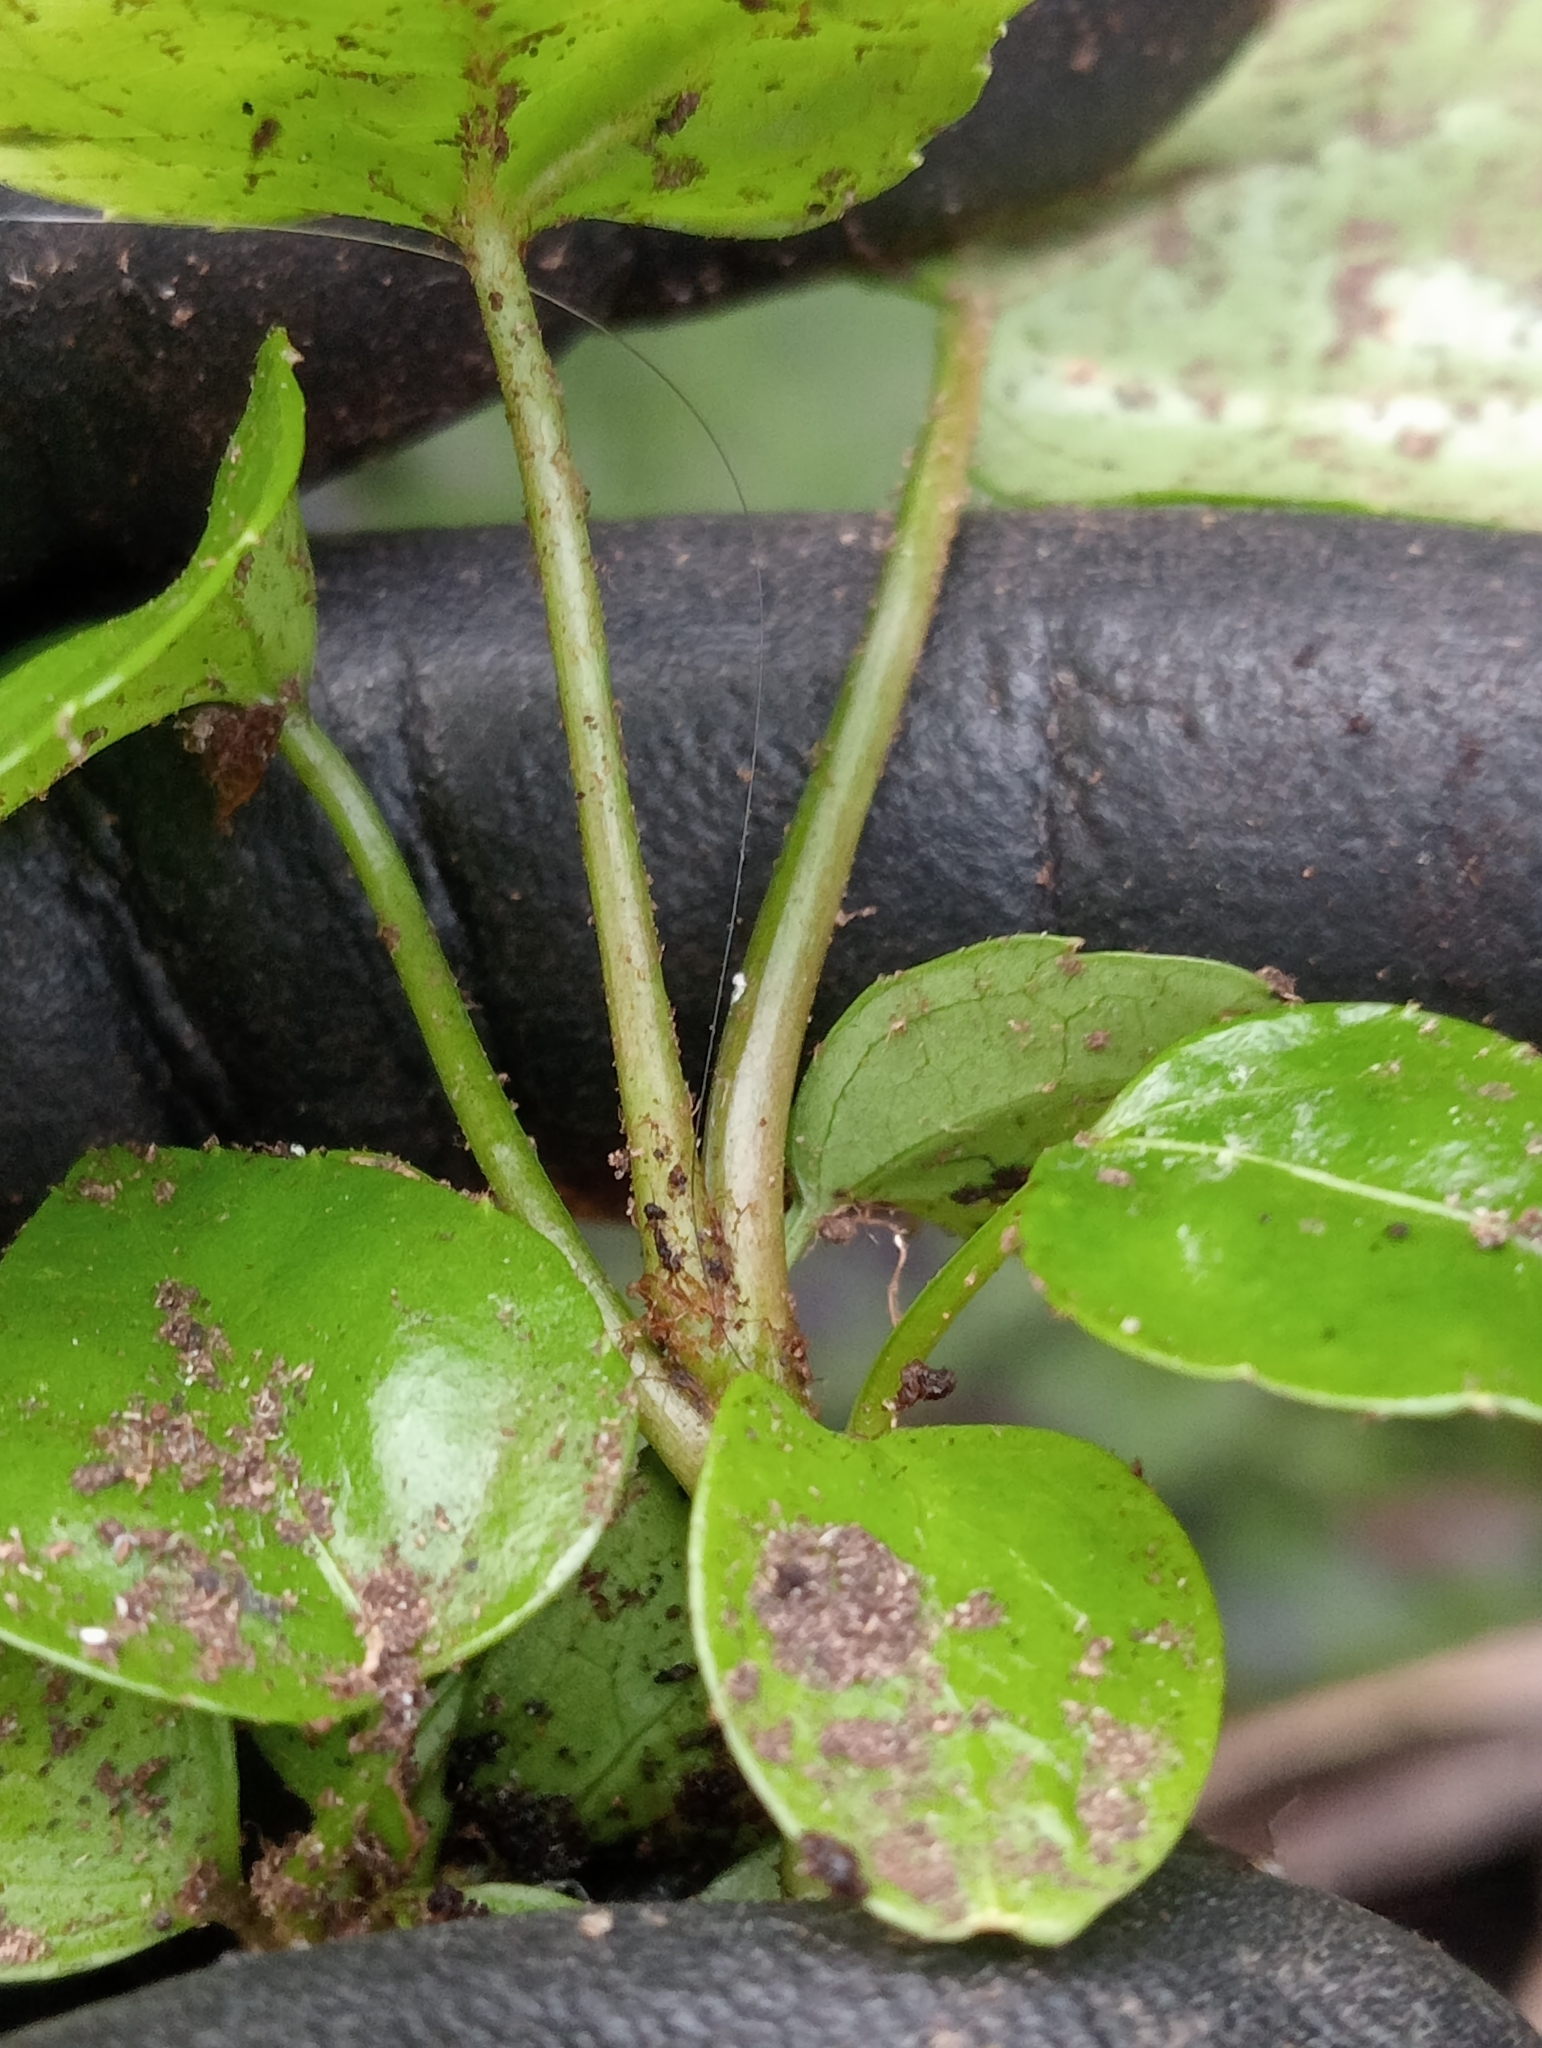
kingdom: Plantae
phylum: Tracheophyta
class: Magnoliopsida
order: Apiales
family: Araliaceae
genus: Fatsia
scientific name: Fatsia japonica
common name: Fatsia
